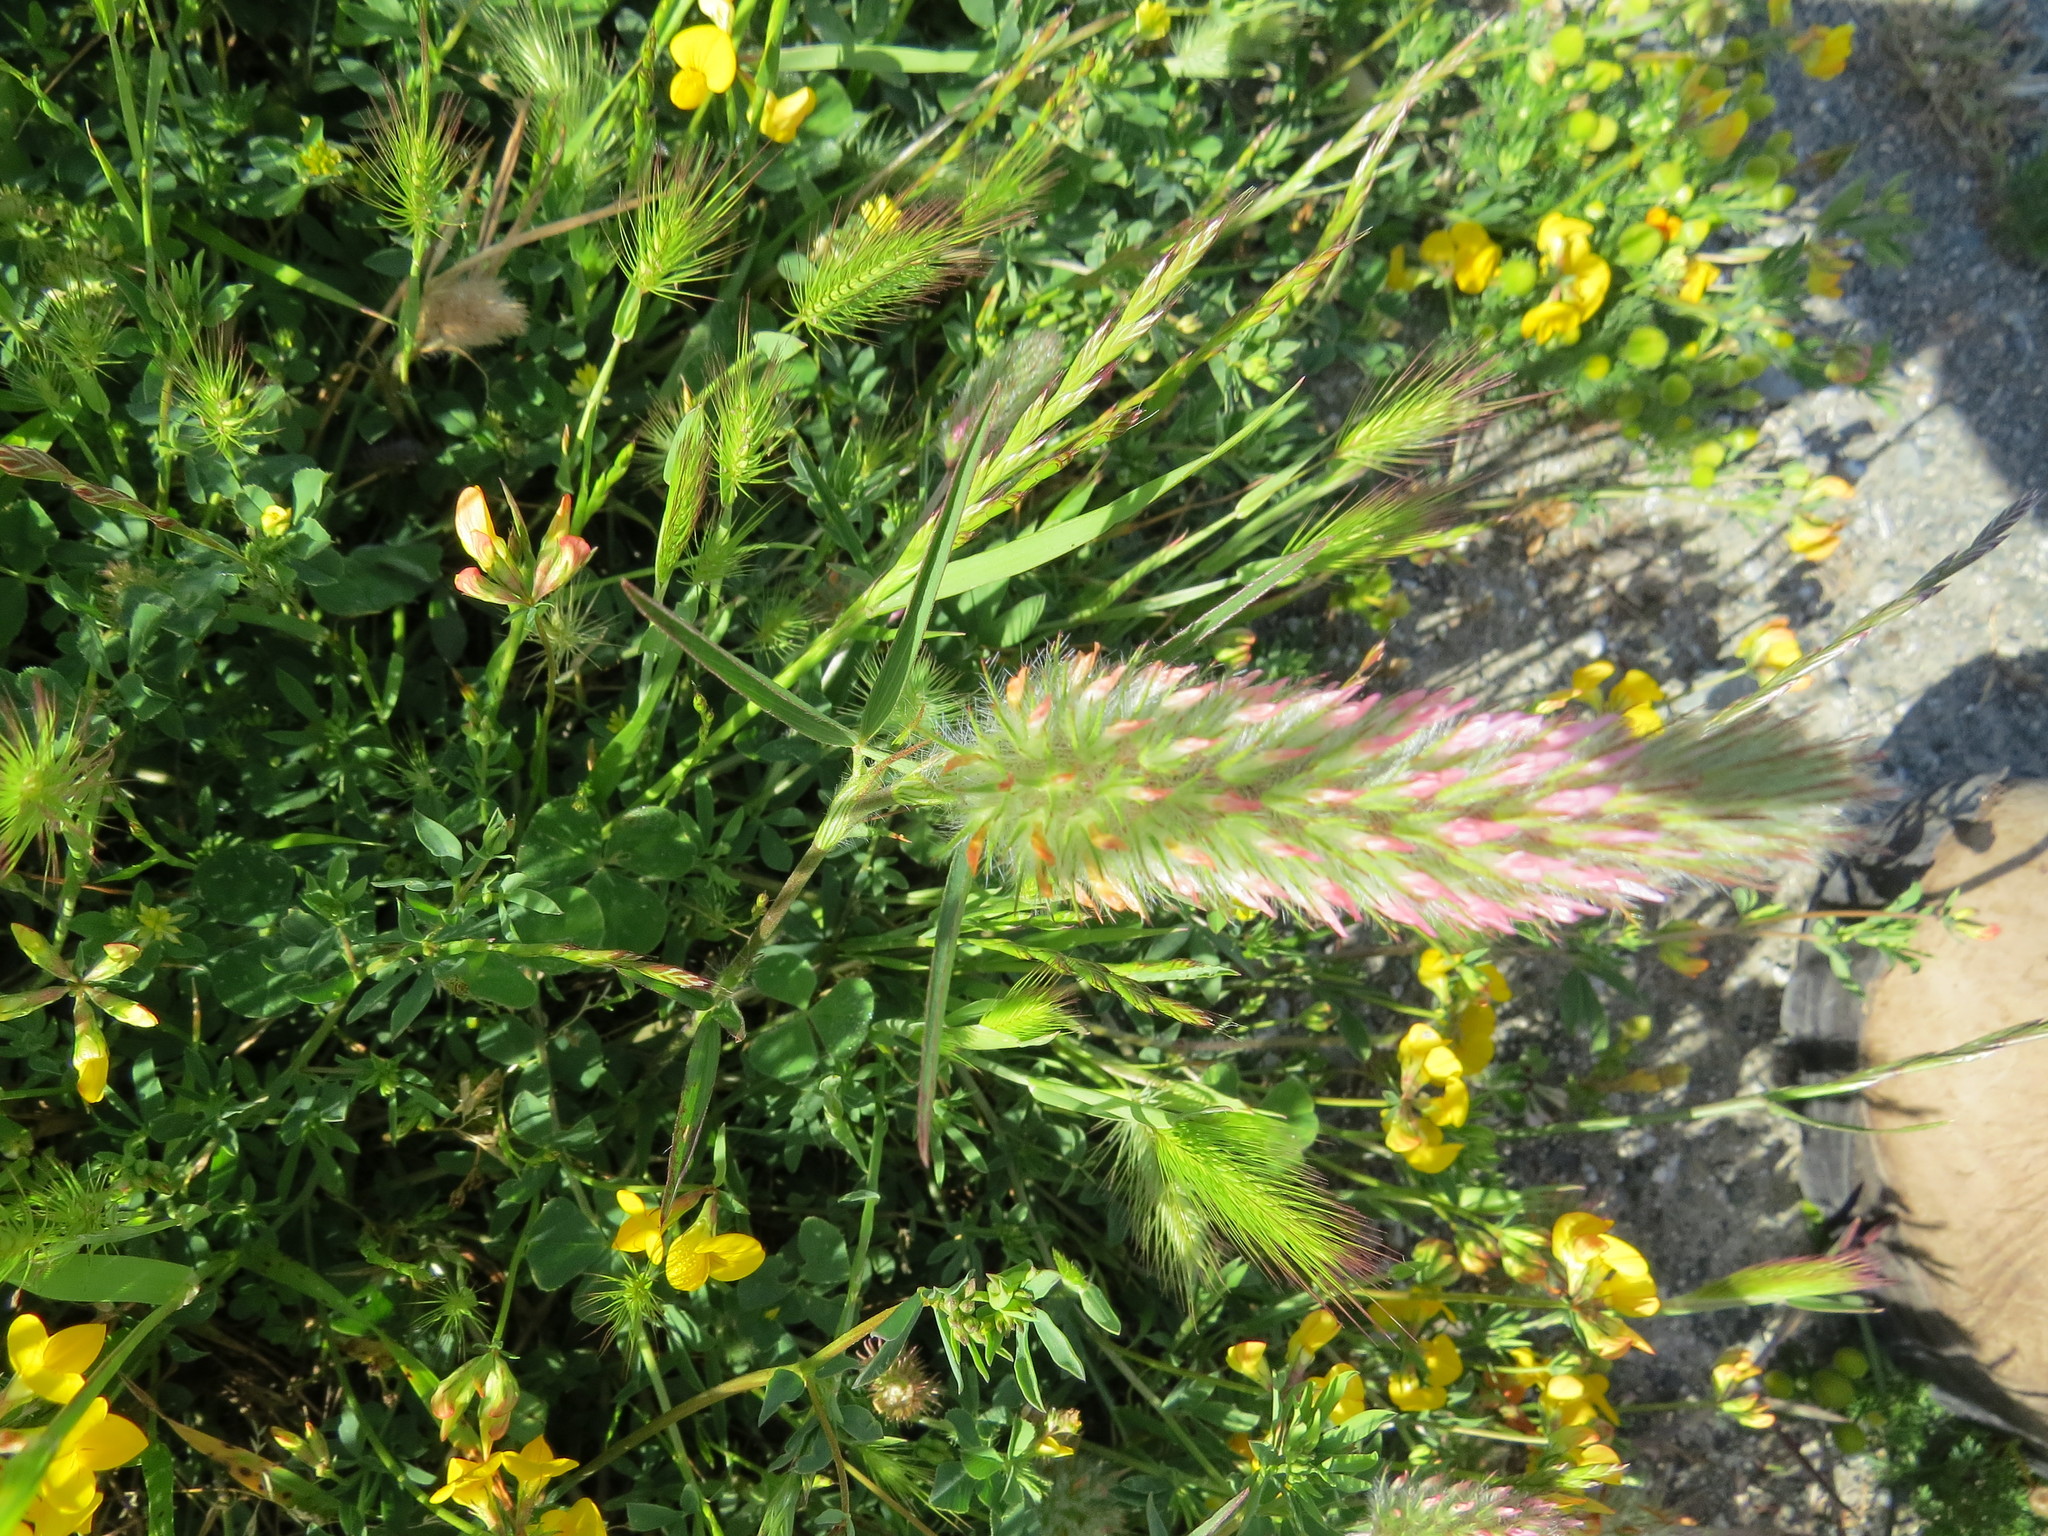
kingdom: Plantae
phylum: Tracheophyta
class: Magnoliopsida
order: Fabales
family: Fabaceae
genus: Trifolium
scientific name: Trifolium angustifolium
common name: Narrow clover
